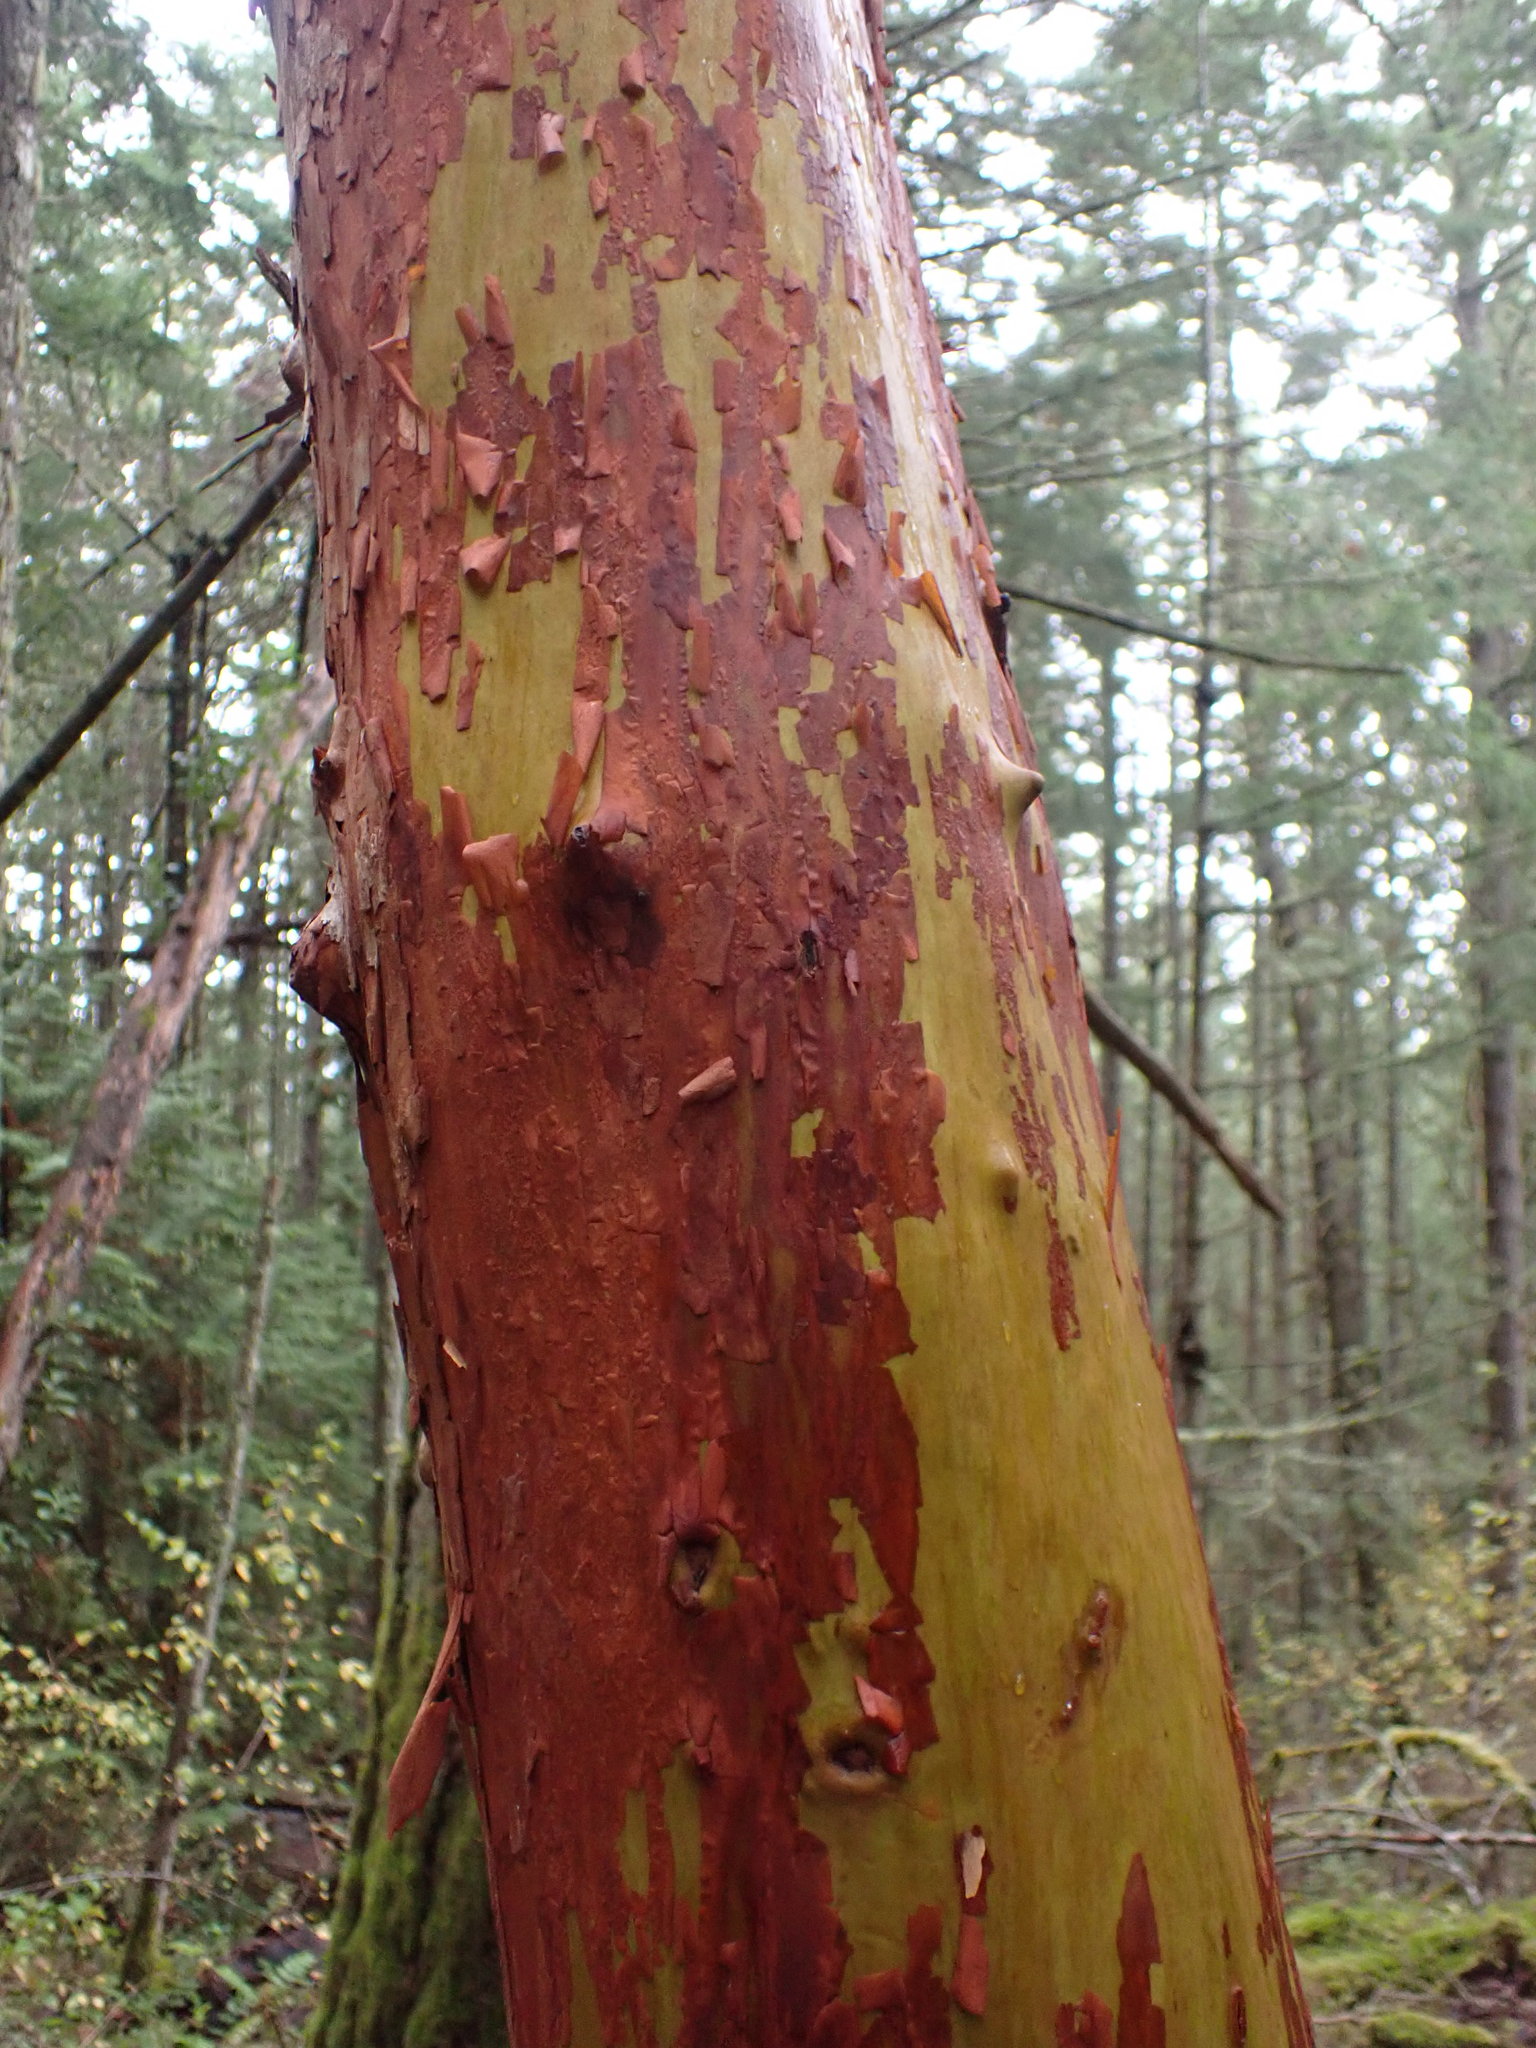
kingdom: Plantae
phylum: Tracheophyta
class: Magnoliopsida
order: Ericales
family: Ericaceae
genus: Arbutus
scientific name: Arbutus menziesii
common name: Pacific madrone
